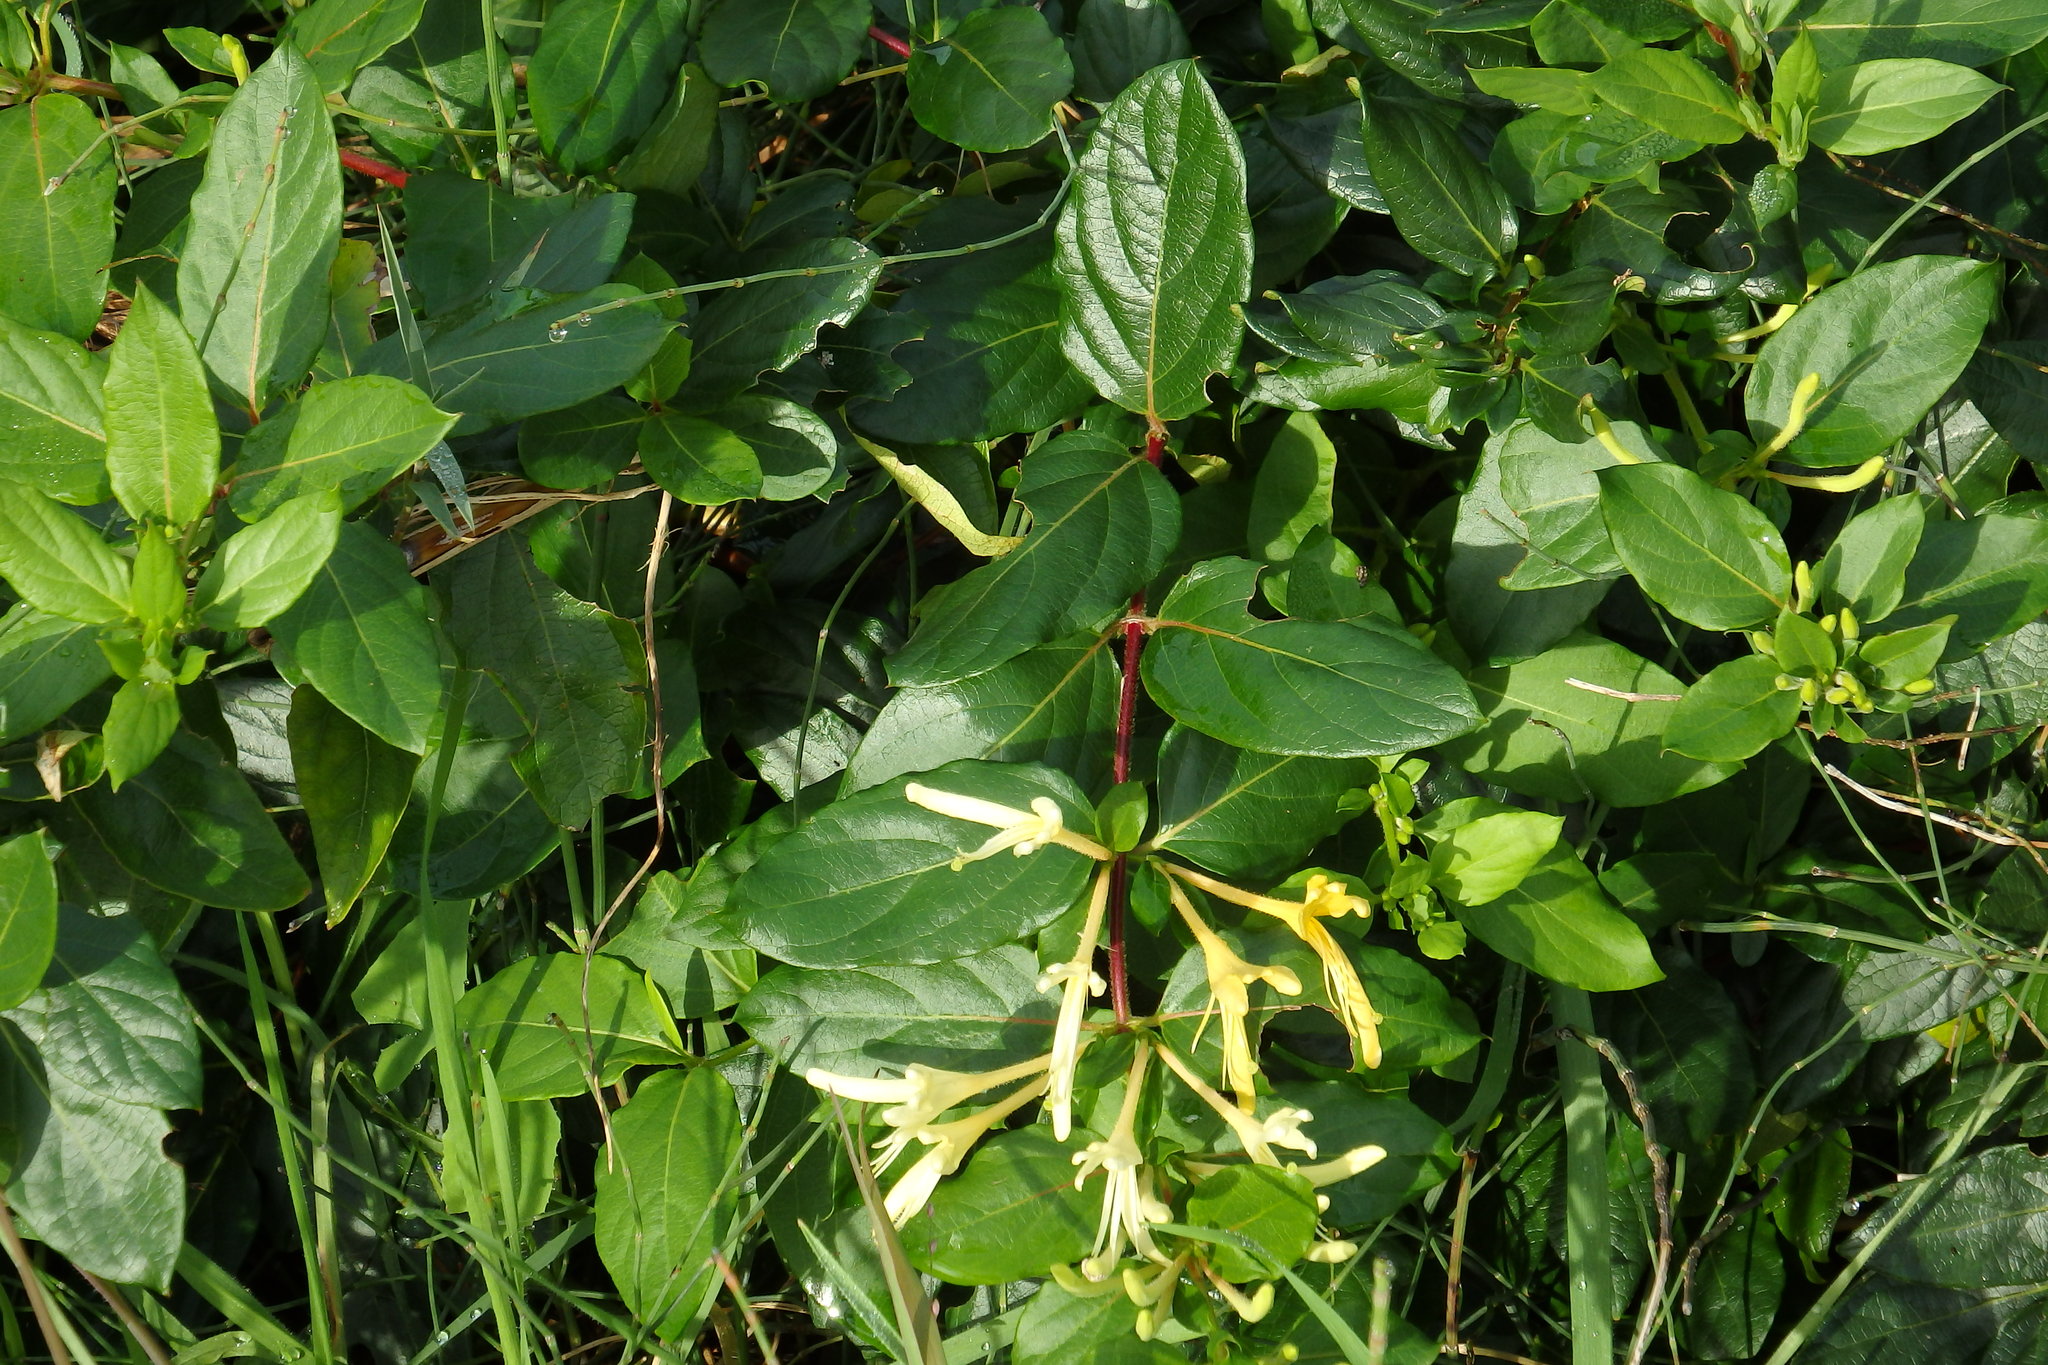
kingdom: Plantae
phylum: Tracheophyta
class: Magnoliopsida
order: Dipsacales
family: Caprifoliaceae
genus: Lonicera
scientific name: Lonicera japonica
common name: Japanese honeysuckle
